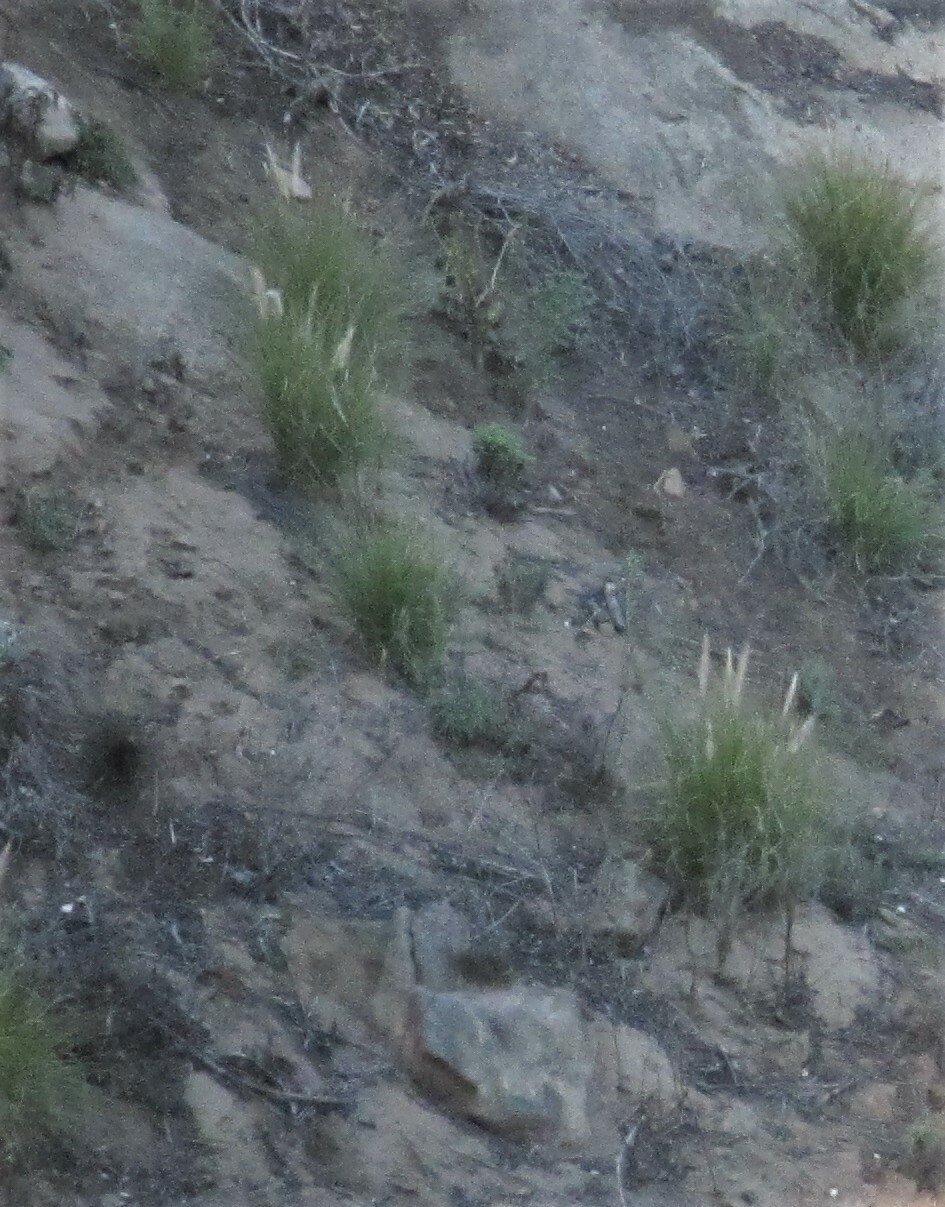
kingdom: Plantae
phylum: Tracheophyta
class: Liliopsida
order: Poales
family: Poaceae
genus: Cenchrus
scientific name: Cenchrus setaceus
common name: Crimson fountaingrass
